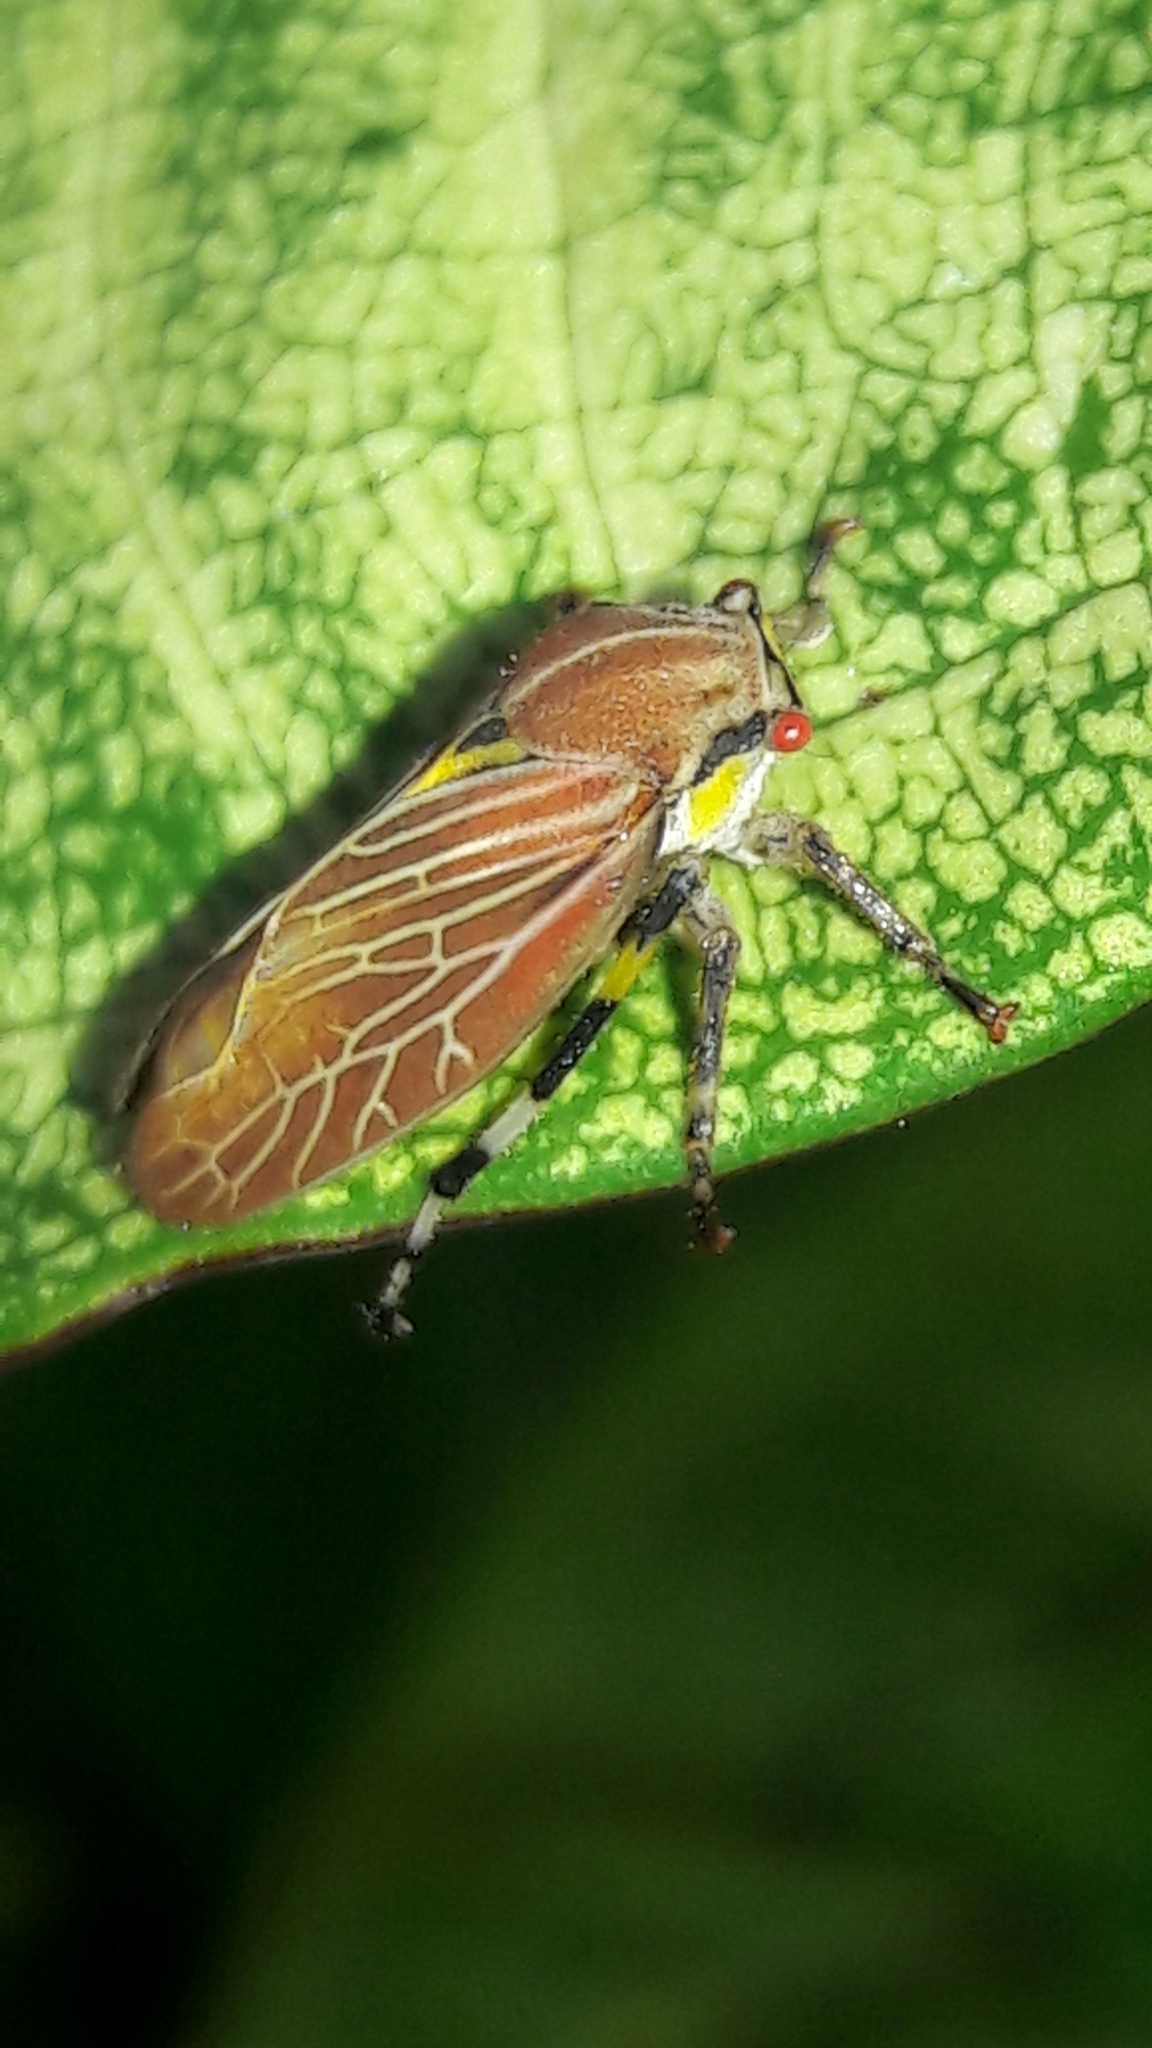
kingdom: Animalia
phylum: Arthropoda
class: Insecta
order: Hemiptera
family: Aetalionidae
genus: Aetalion
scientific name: Aetalion reticulatum
